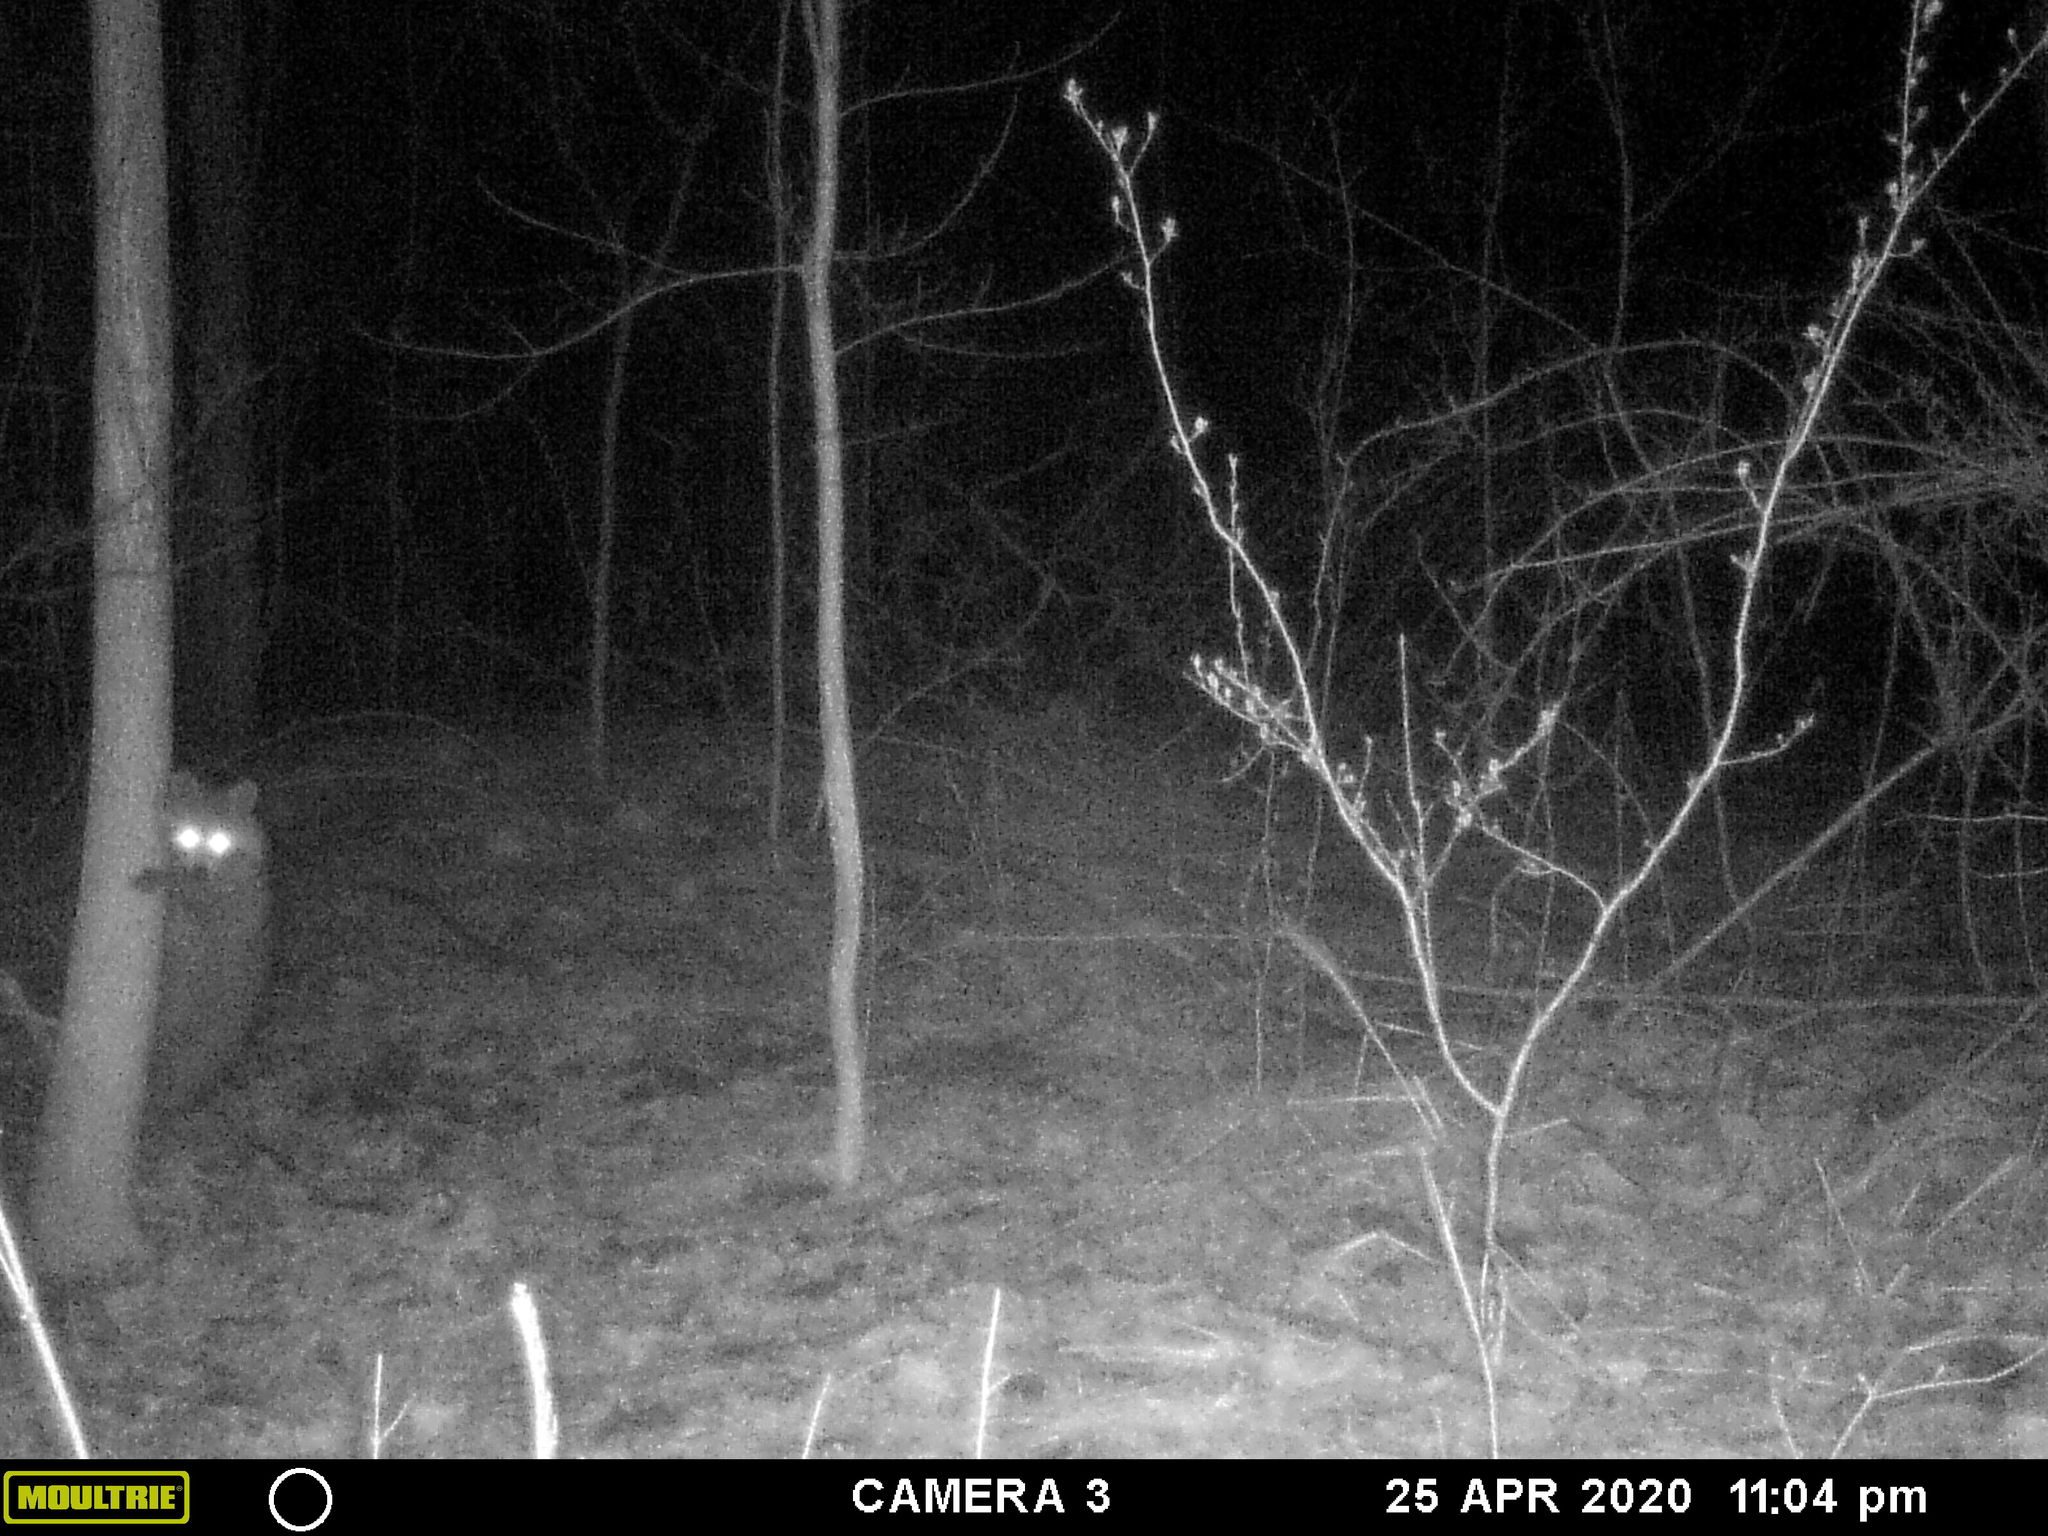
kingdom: Animalia
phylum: Chordata
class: Mammalia
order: Carnivora
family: Procyonidae
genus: Procyon
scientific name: Procyon lotor
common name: Raccoon
